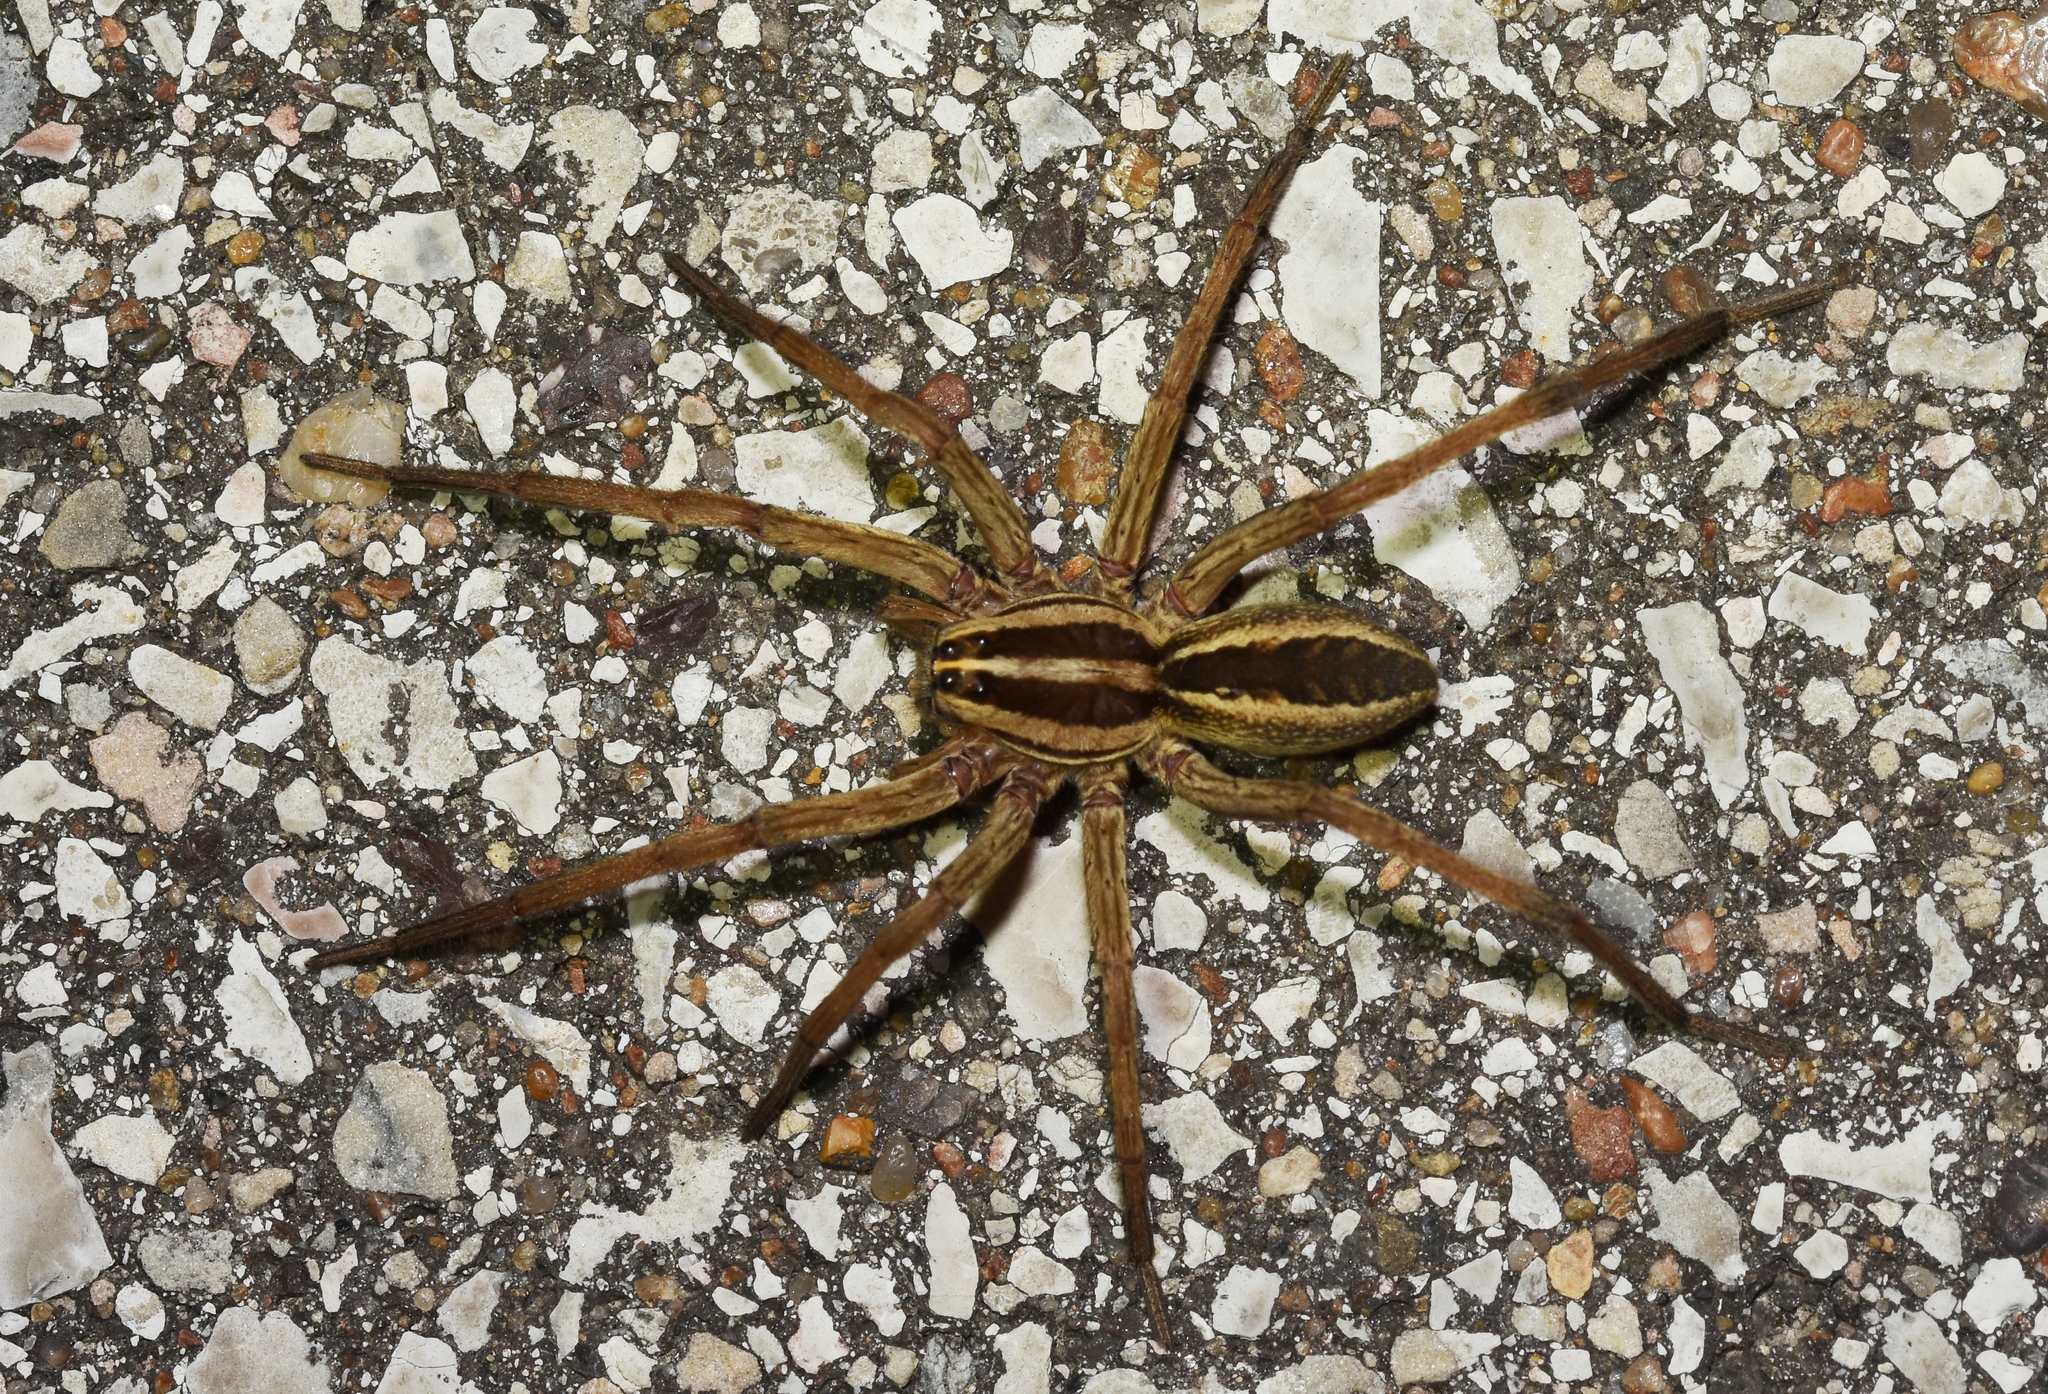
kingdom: Animalia
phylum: Arthropoda
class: Arachnida
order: Araneae
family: Lycosidae
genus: Rabidosa
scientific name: Rabidosa rabida
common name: Rabid wolf spider
